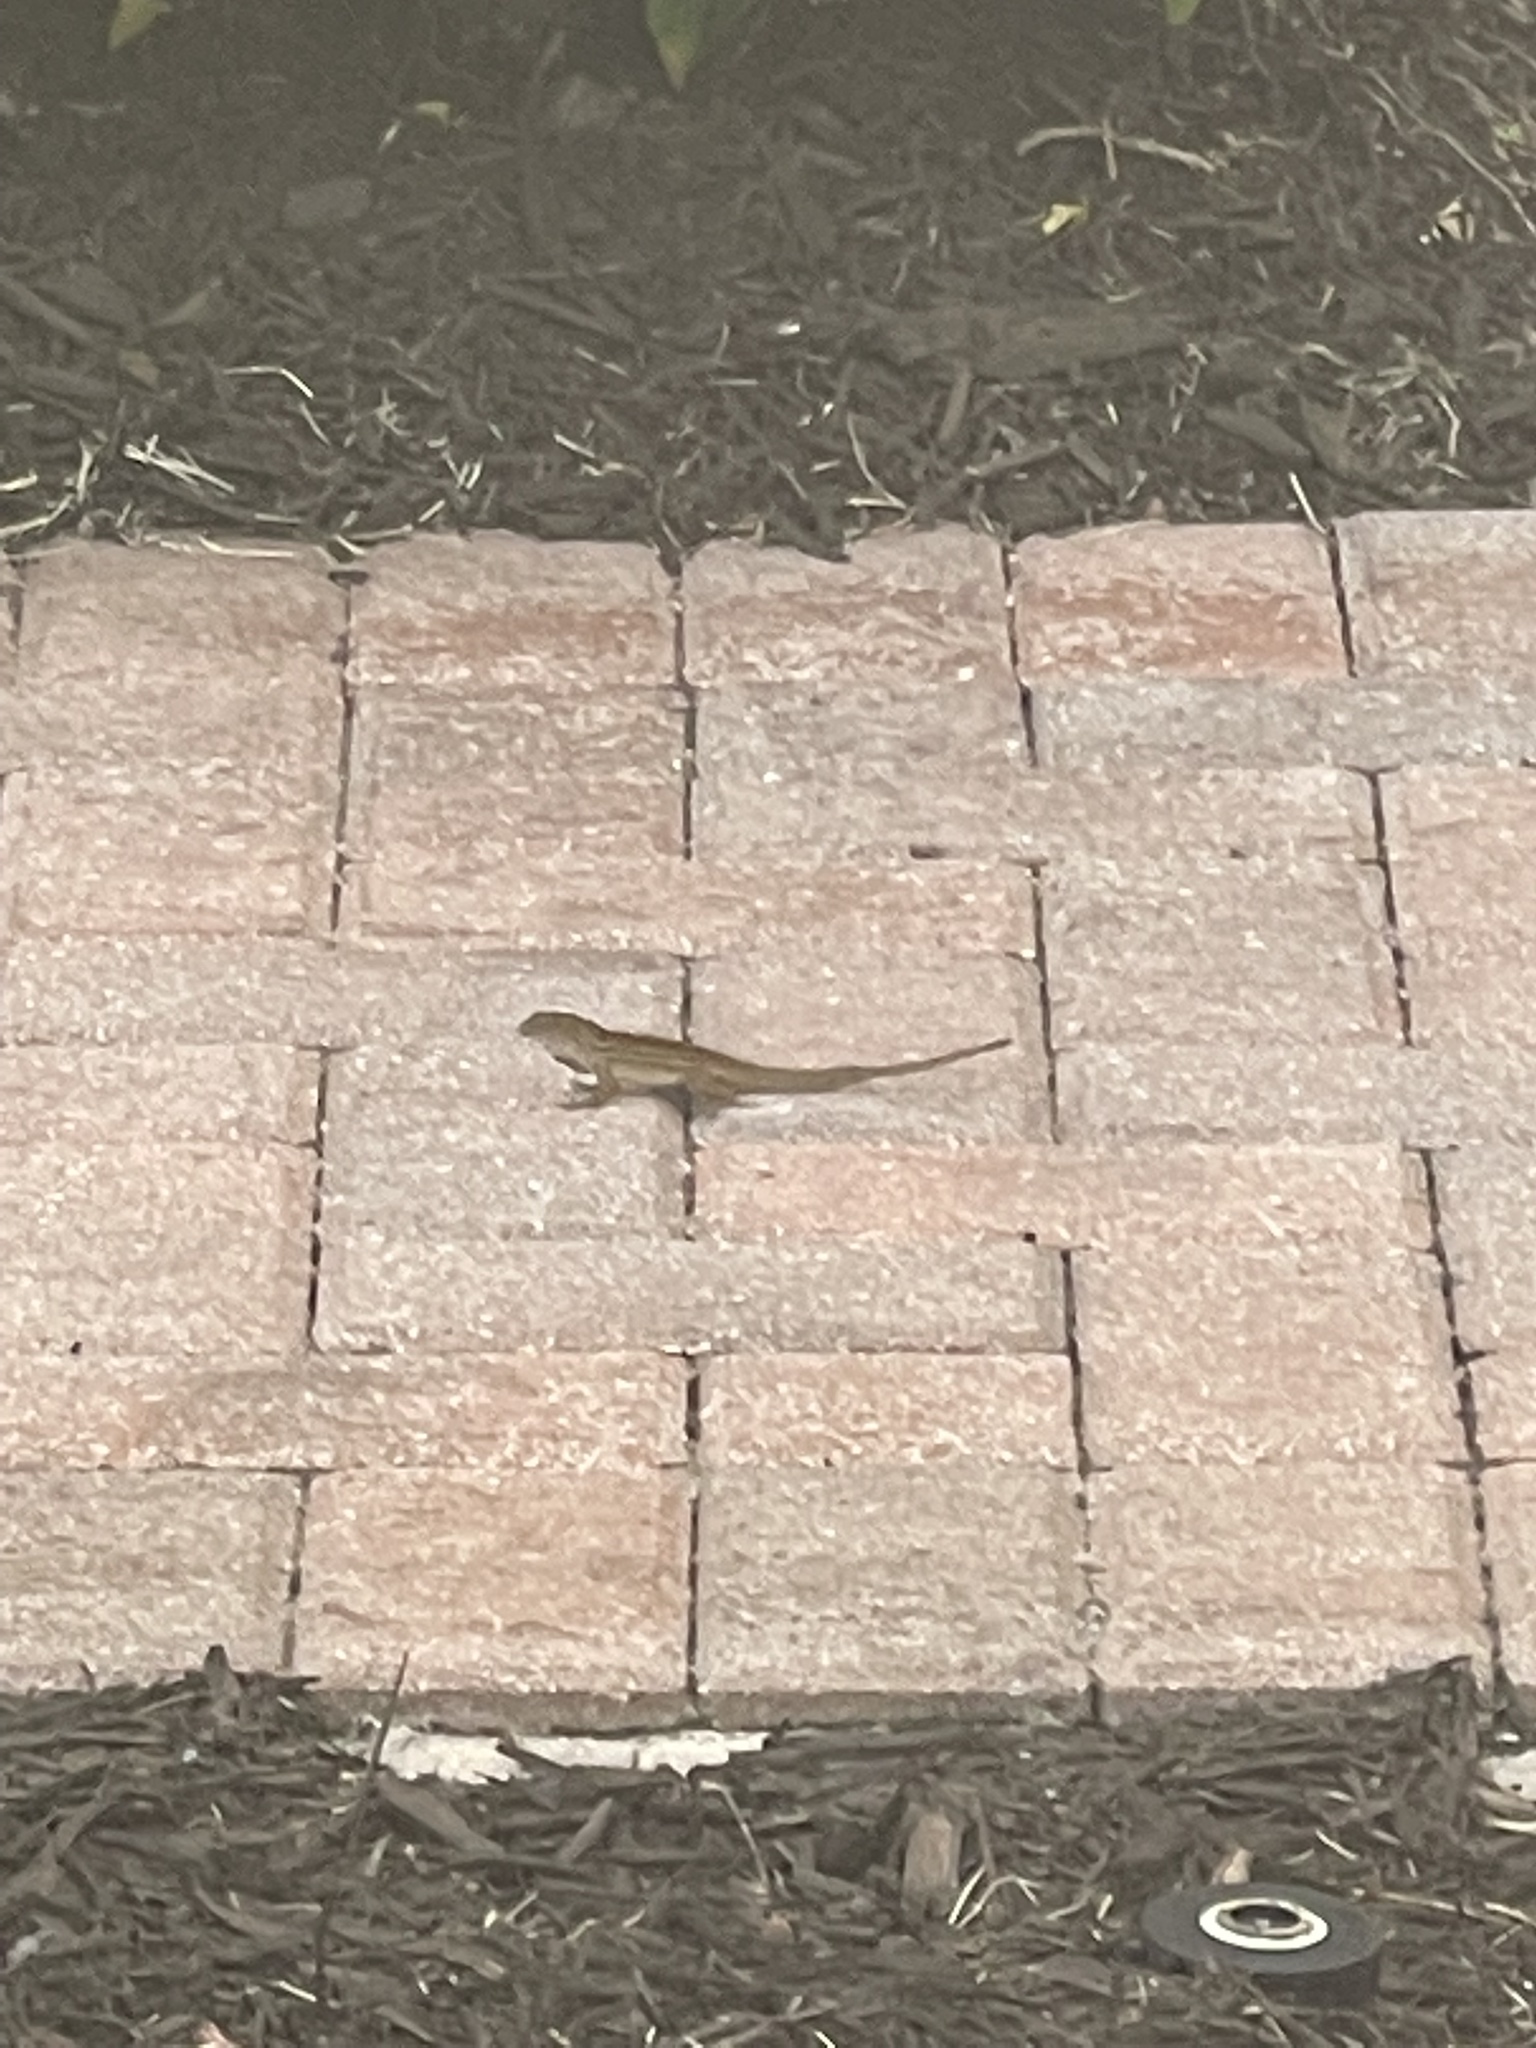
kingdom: Animalia
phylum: Chordata
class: Squamata
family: Dactyloidae
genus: Anolis
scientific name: Anolis sagrei
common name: Brown anole
